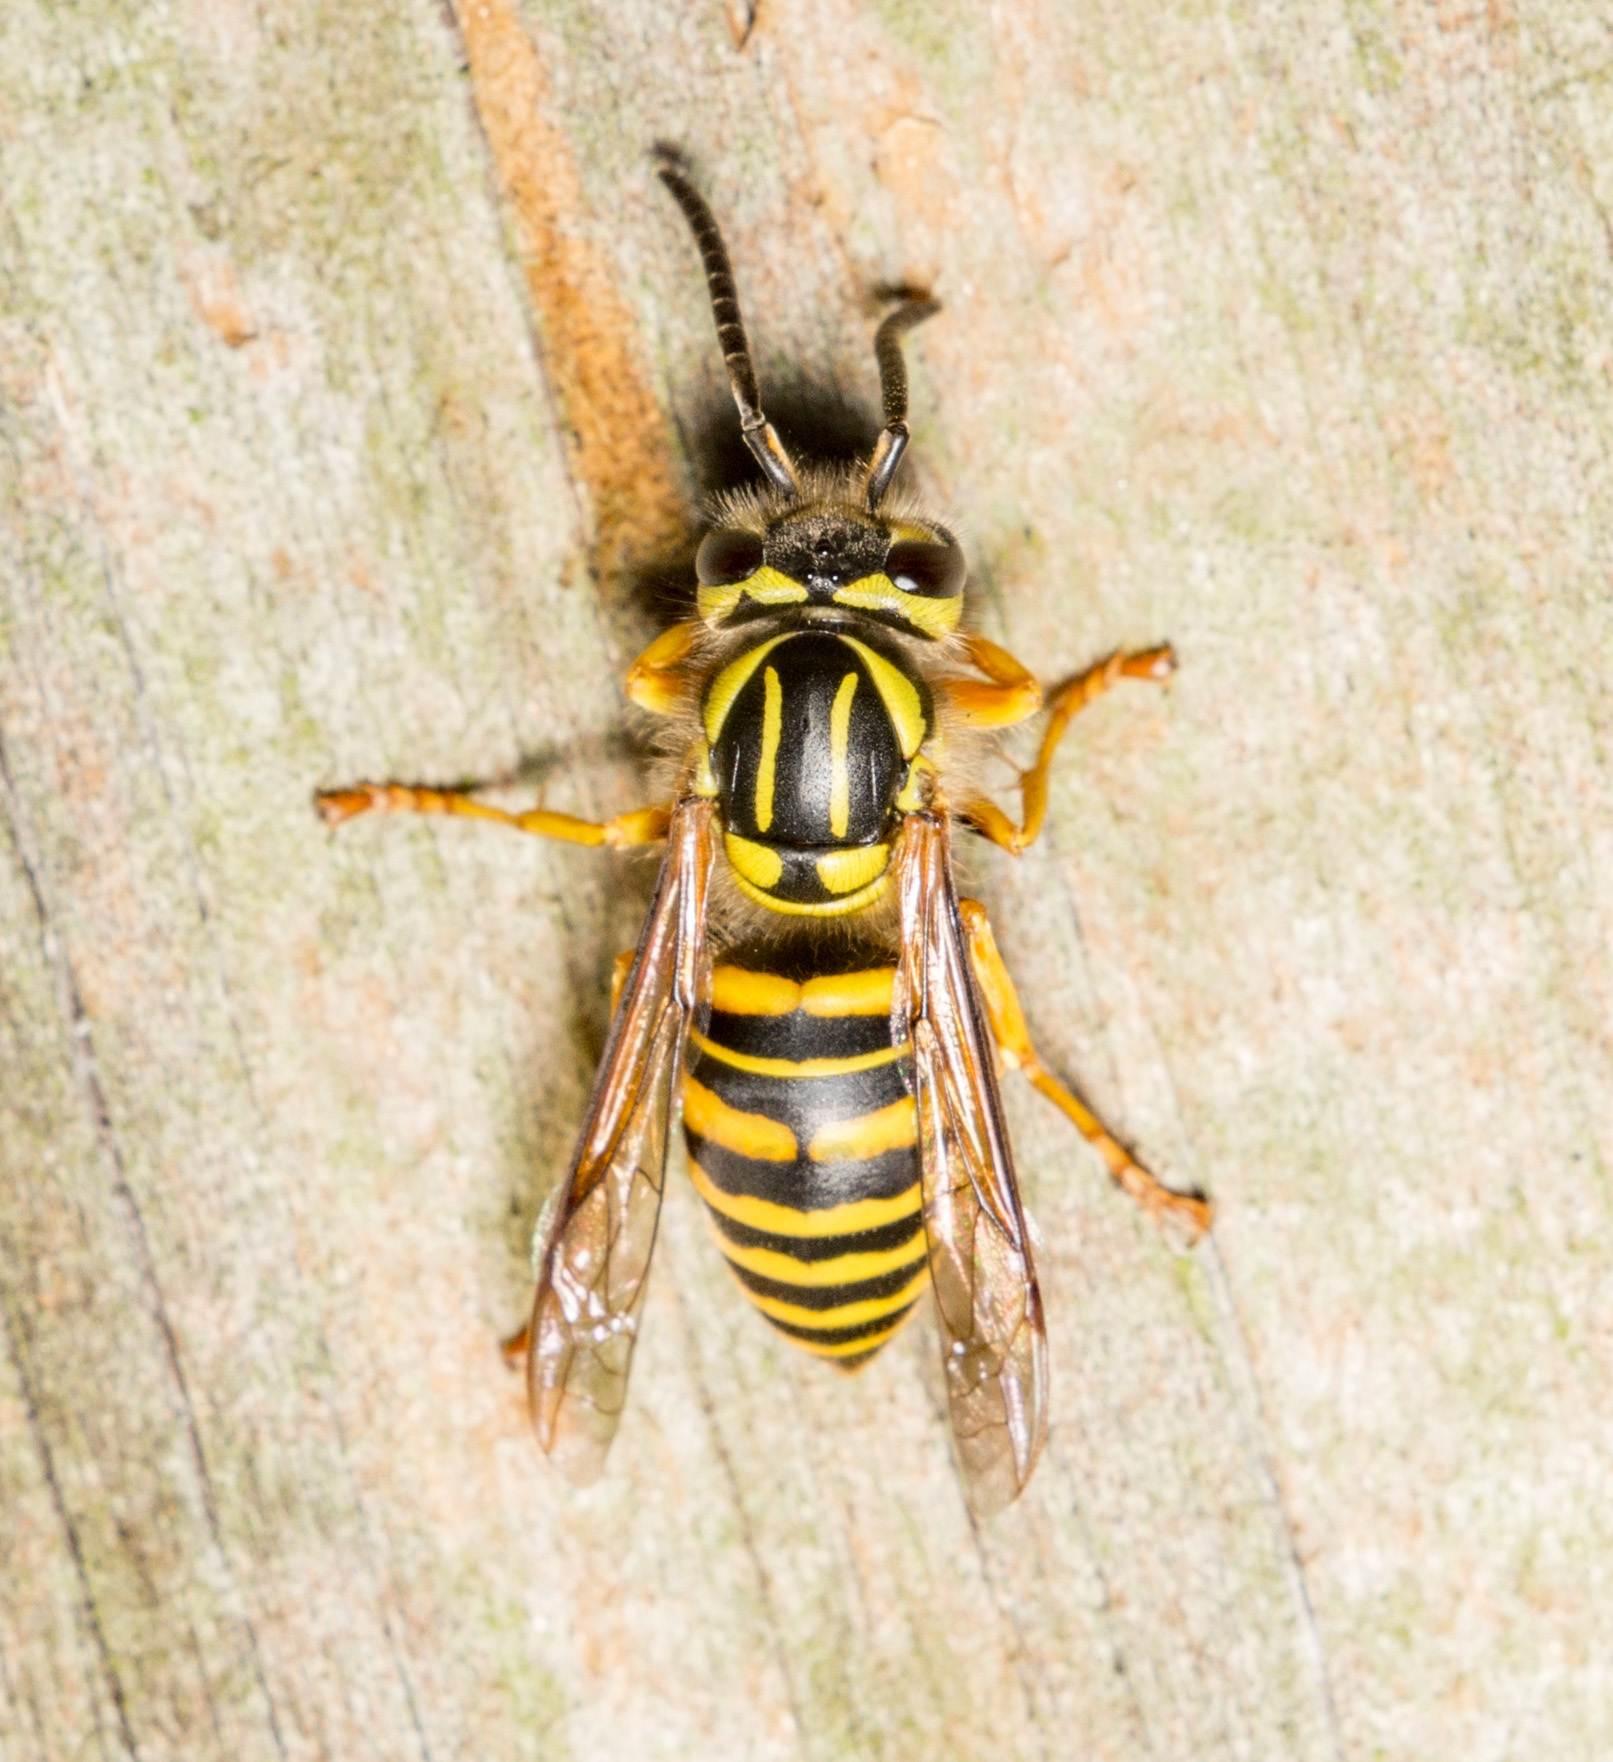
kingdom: Animalia
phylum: Arthropoda
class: Insecta
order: Hymenoptera
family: Vespidae
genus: Vespula
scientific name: Vespula squamosa
